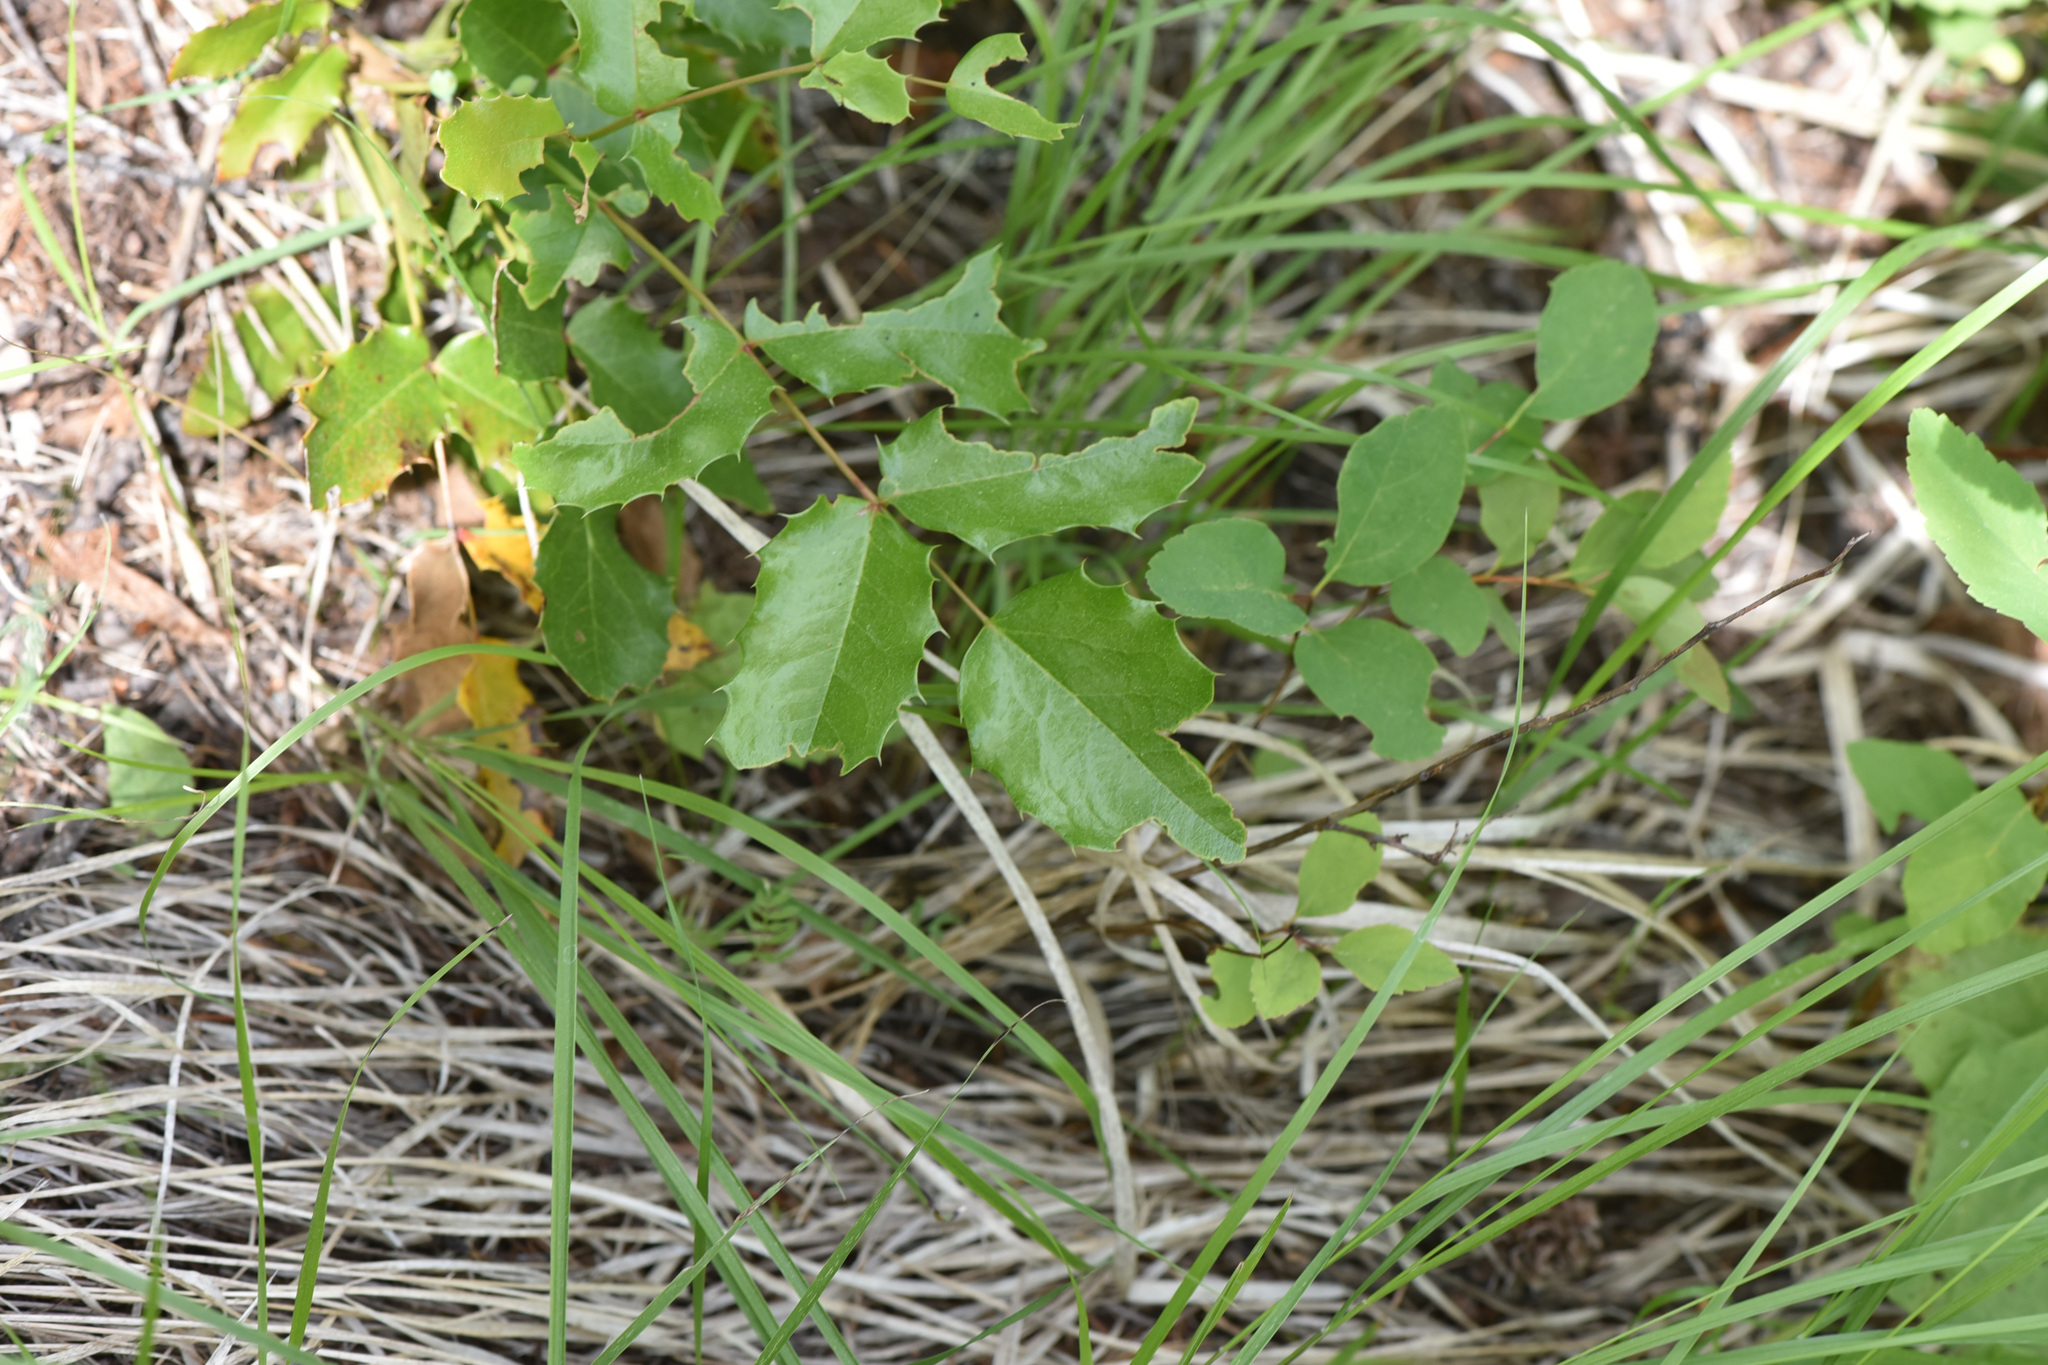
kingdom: Plantae
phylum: Tracheophyta
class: Magnoliopsida
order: Ranunculales
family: Berberidaceae
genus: Mahonia
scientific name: Mahonia aquifolium
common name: Oregon-grape
